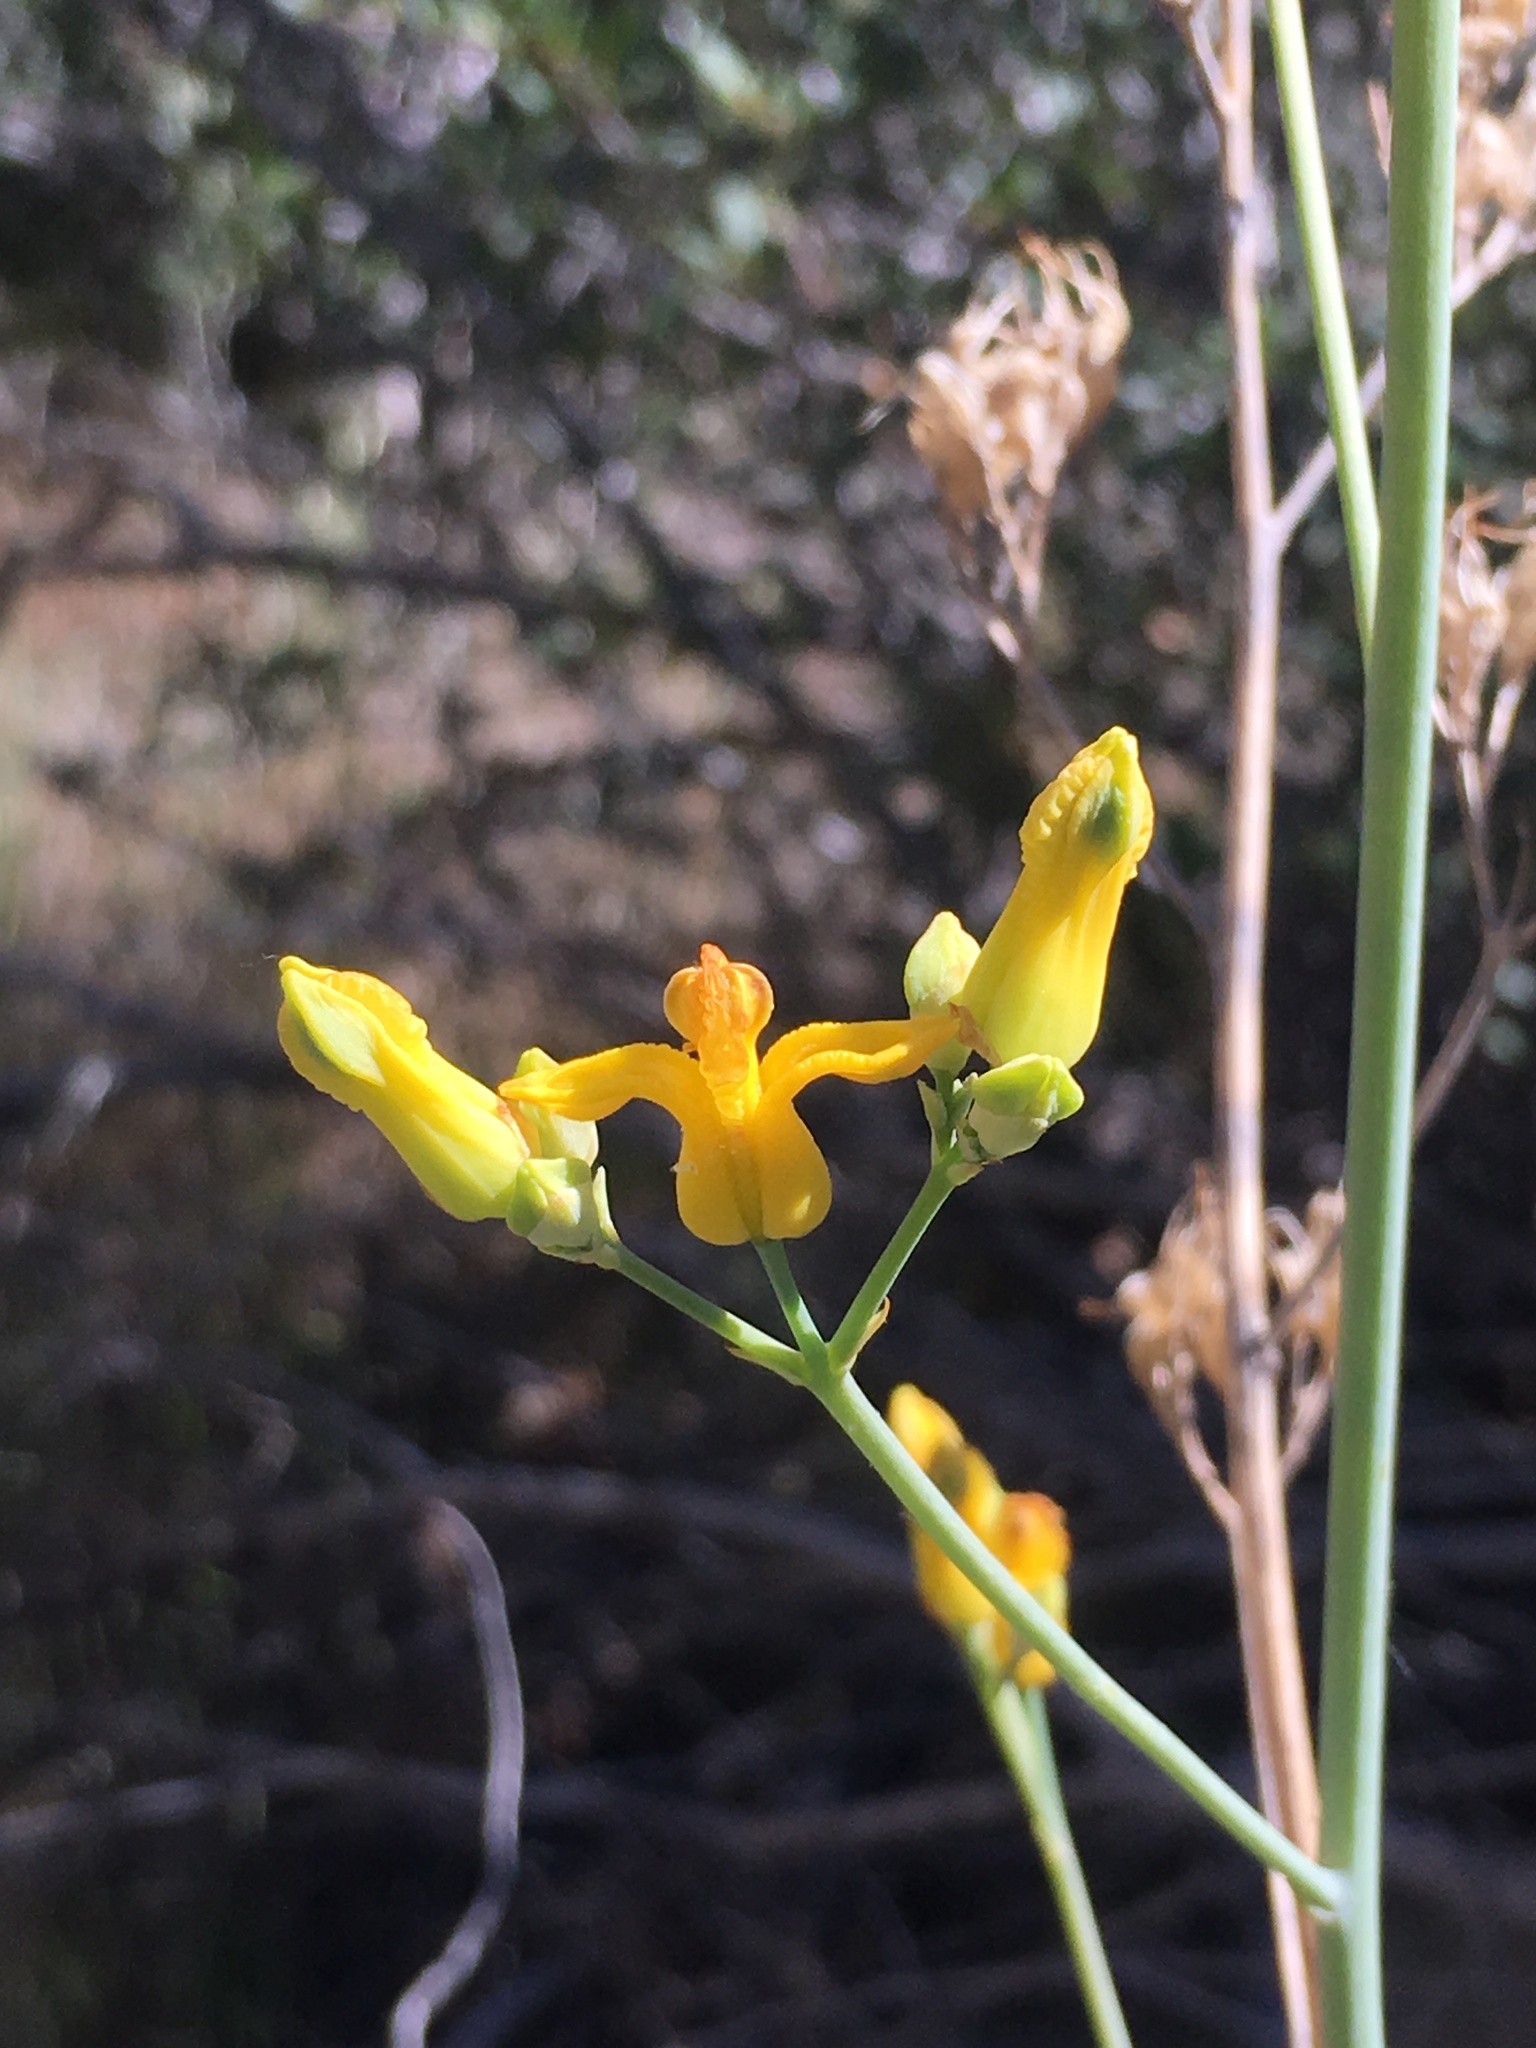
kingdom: Plantae
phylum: Tracheophyta
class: Magnoliopsida
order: Ranunculales
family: Papaveraceae
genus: Ehrendorferia
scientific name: Ehrendorferia chrysantha
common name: Golden eardrops
